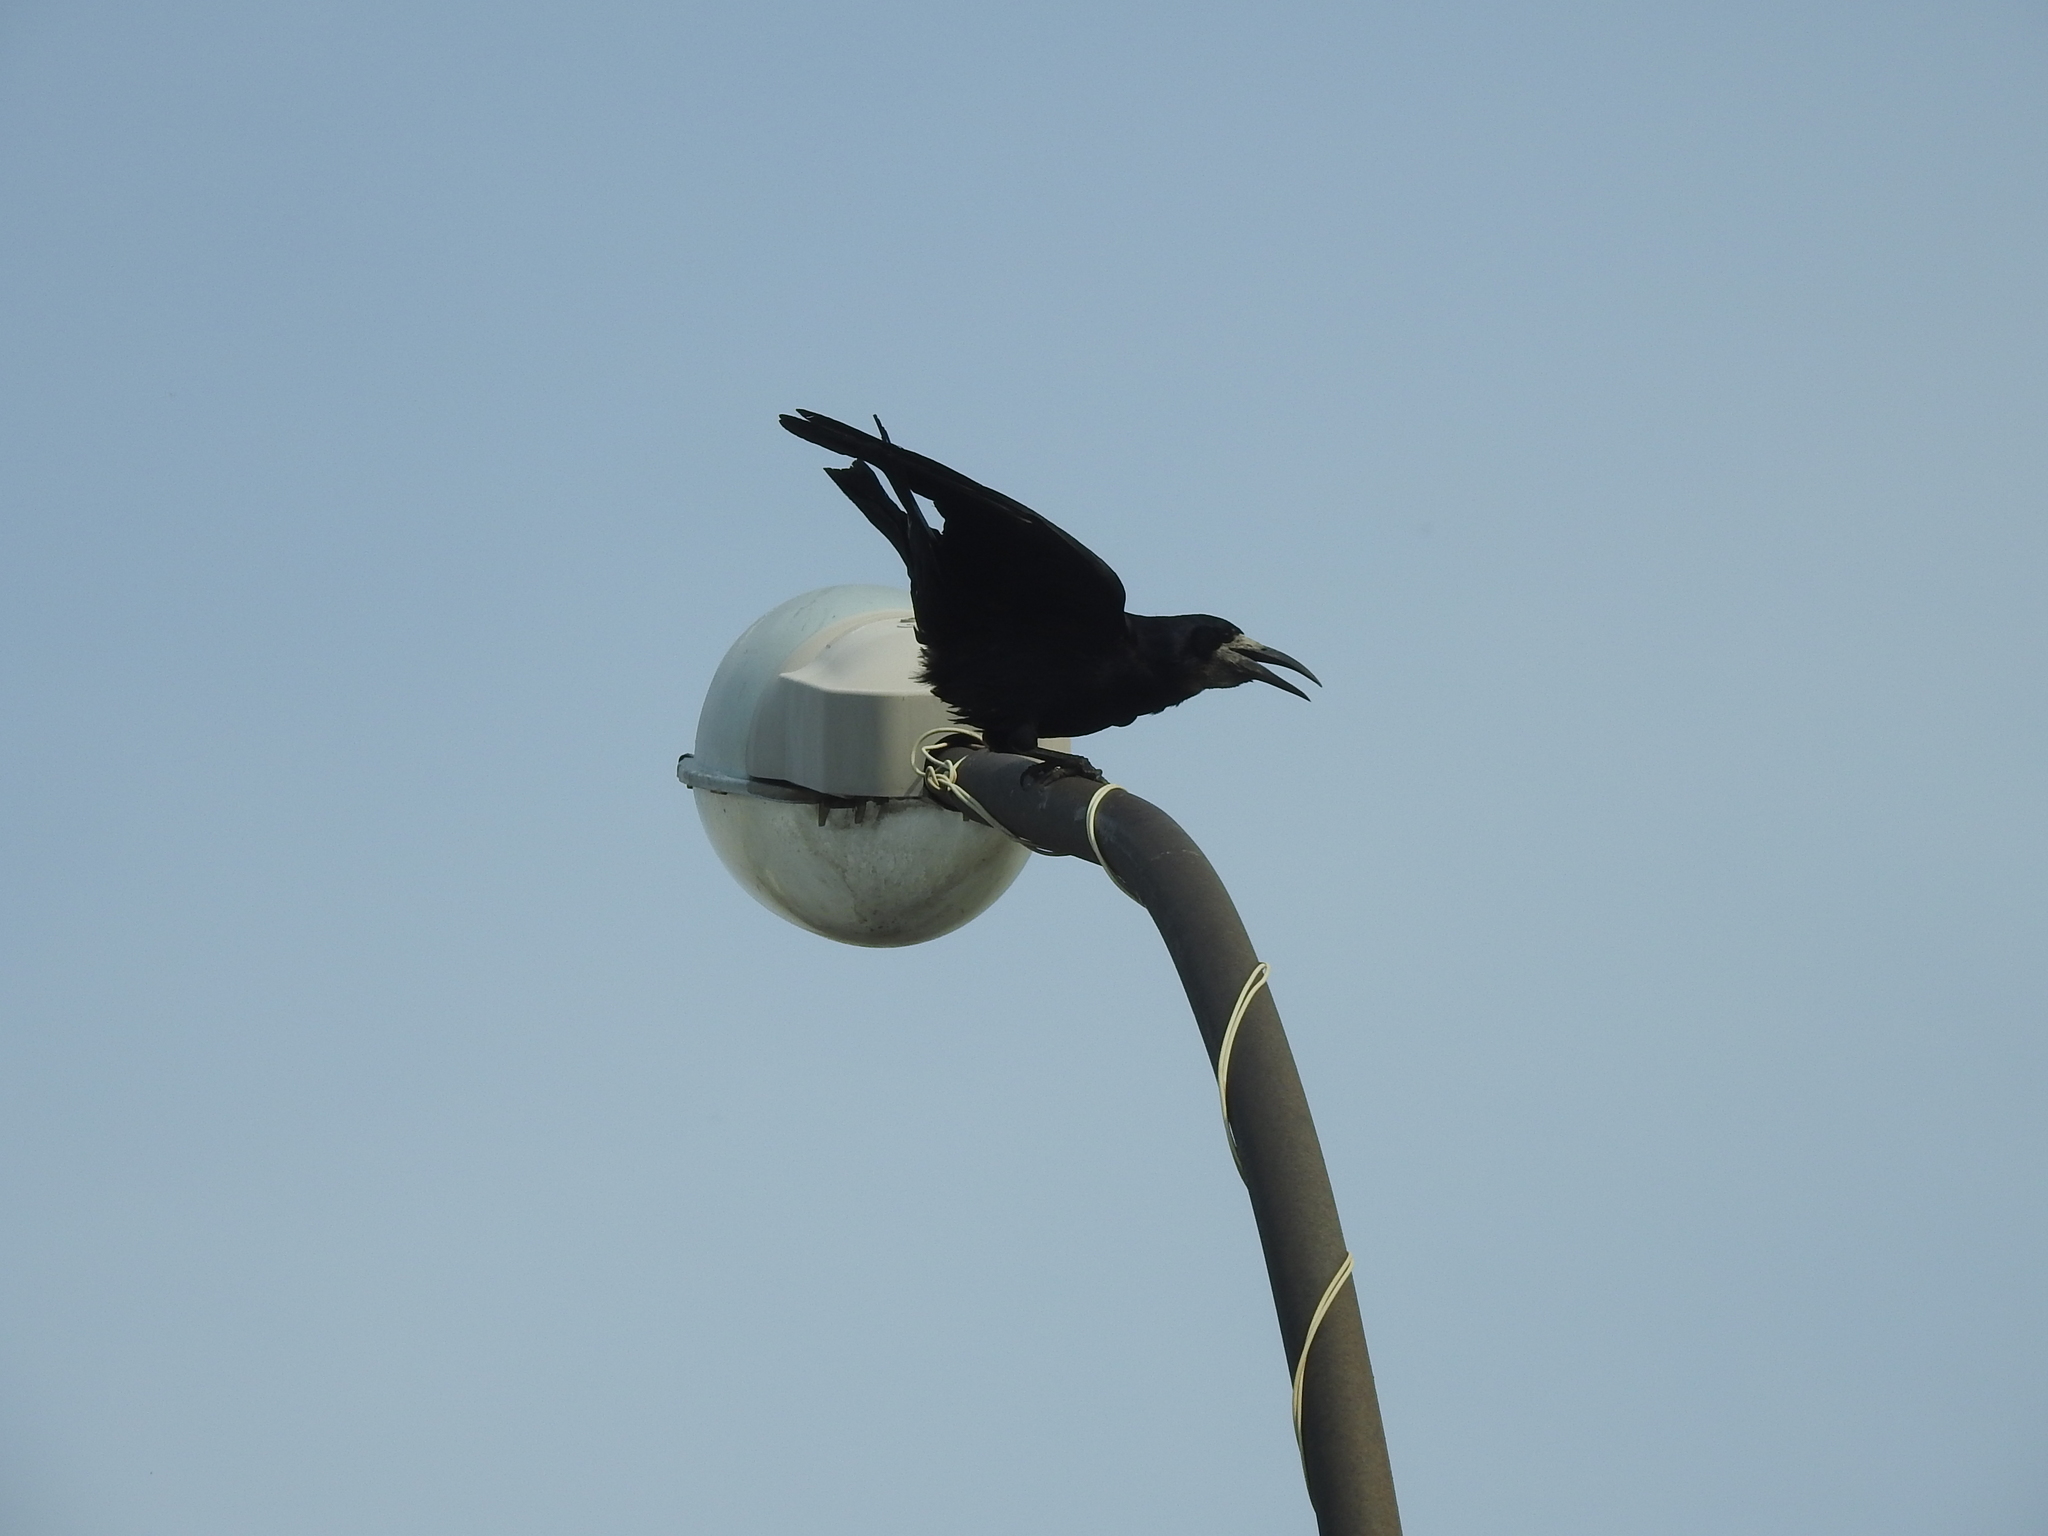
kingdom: Animalia
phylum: Chordata
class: Aves
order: Passeriformes
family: Corvidae
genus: Corvus
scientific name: Corvus frugilegus
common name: Rook
